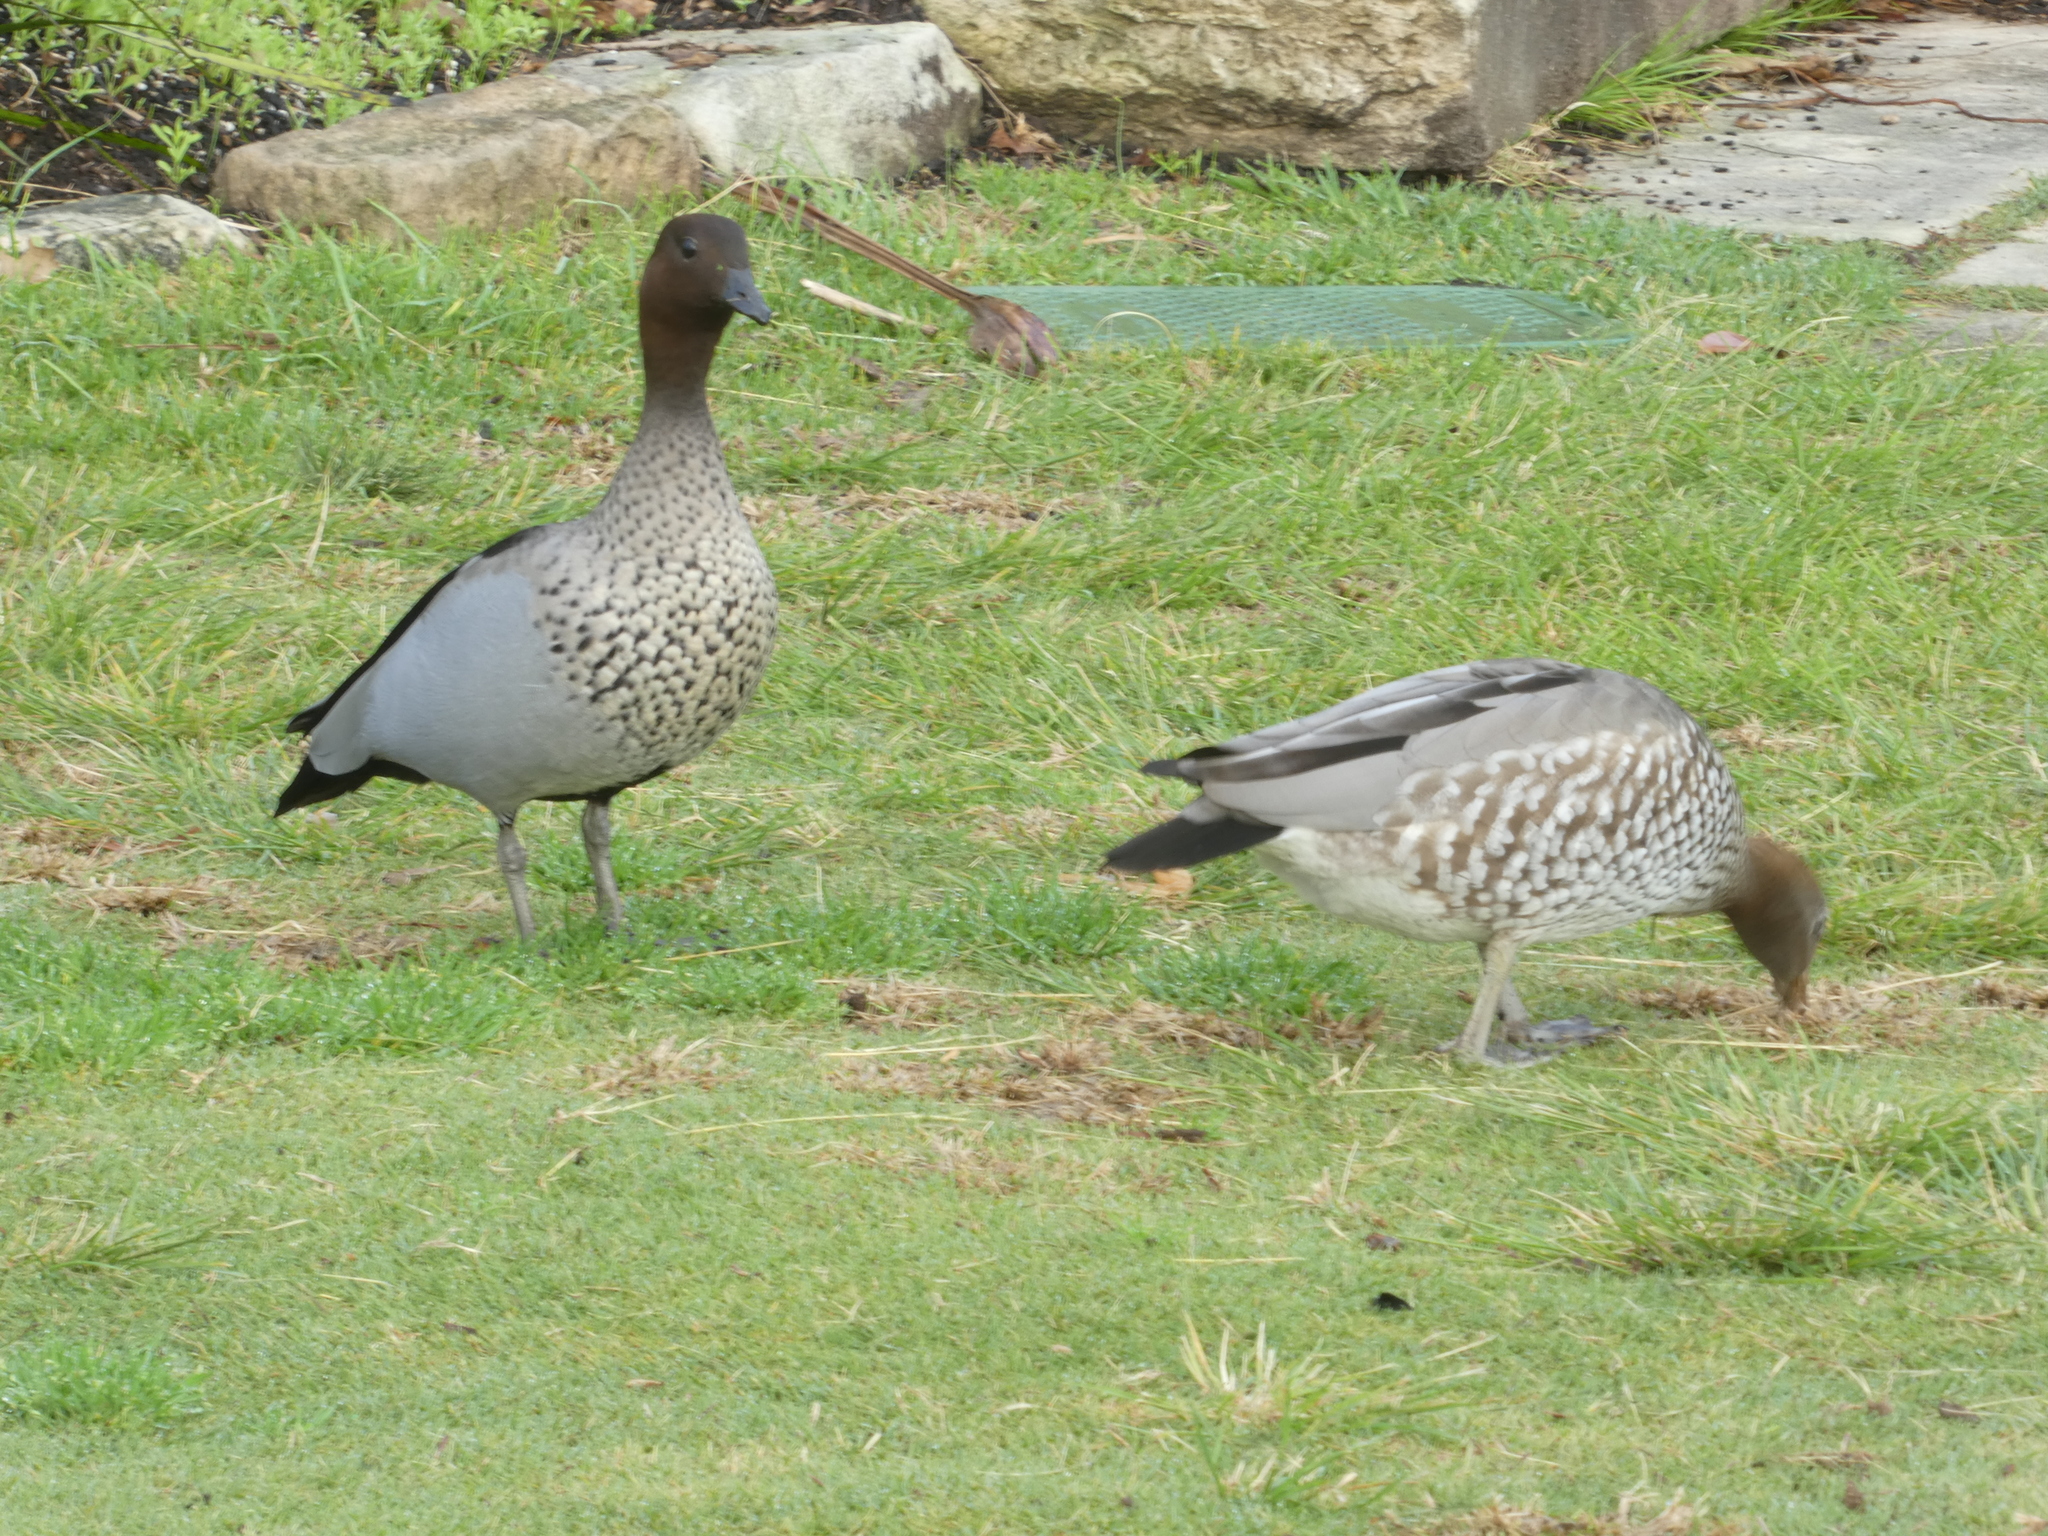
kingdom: Animalia
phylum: Chordata
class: Aves
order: Anseriformes
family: Anatidae
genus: Chenonetta
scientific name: Chenonetta jubata
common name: Maned duck
